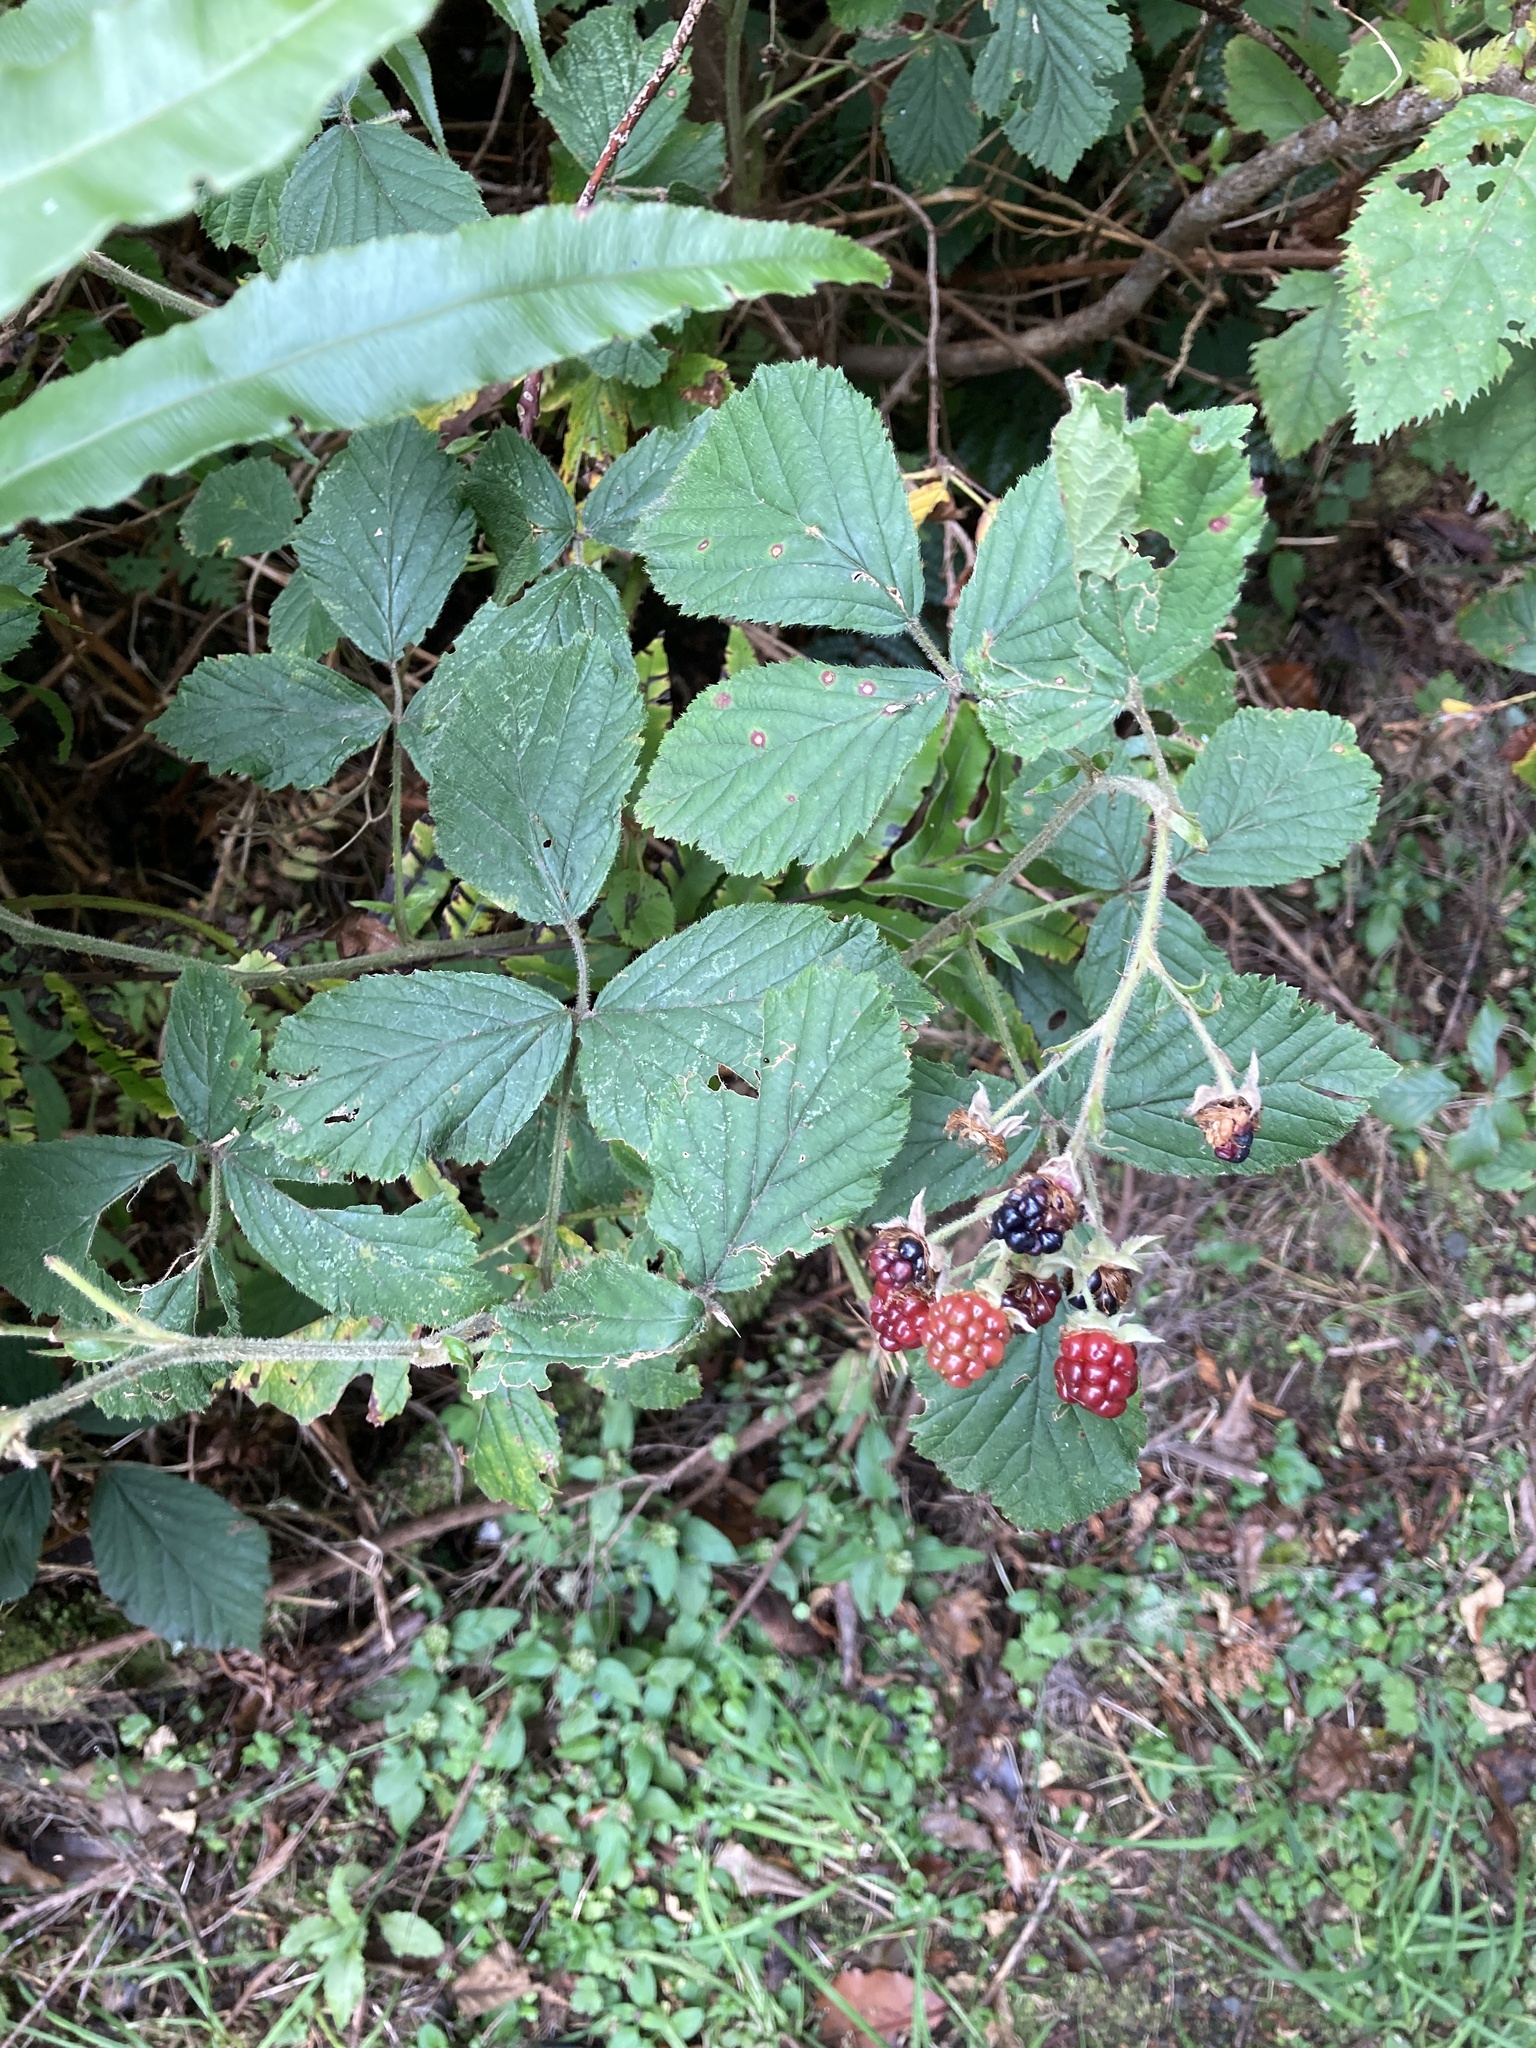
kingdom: Plantae
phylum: Tracheophyta
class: Magnoliopsida
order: Rosales
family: Rosaceae
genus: Rubus
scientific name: Rubus fruticosus
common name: Blackberry, bramble
